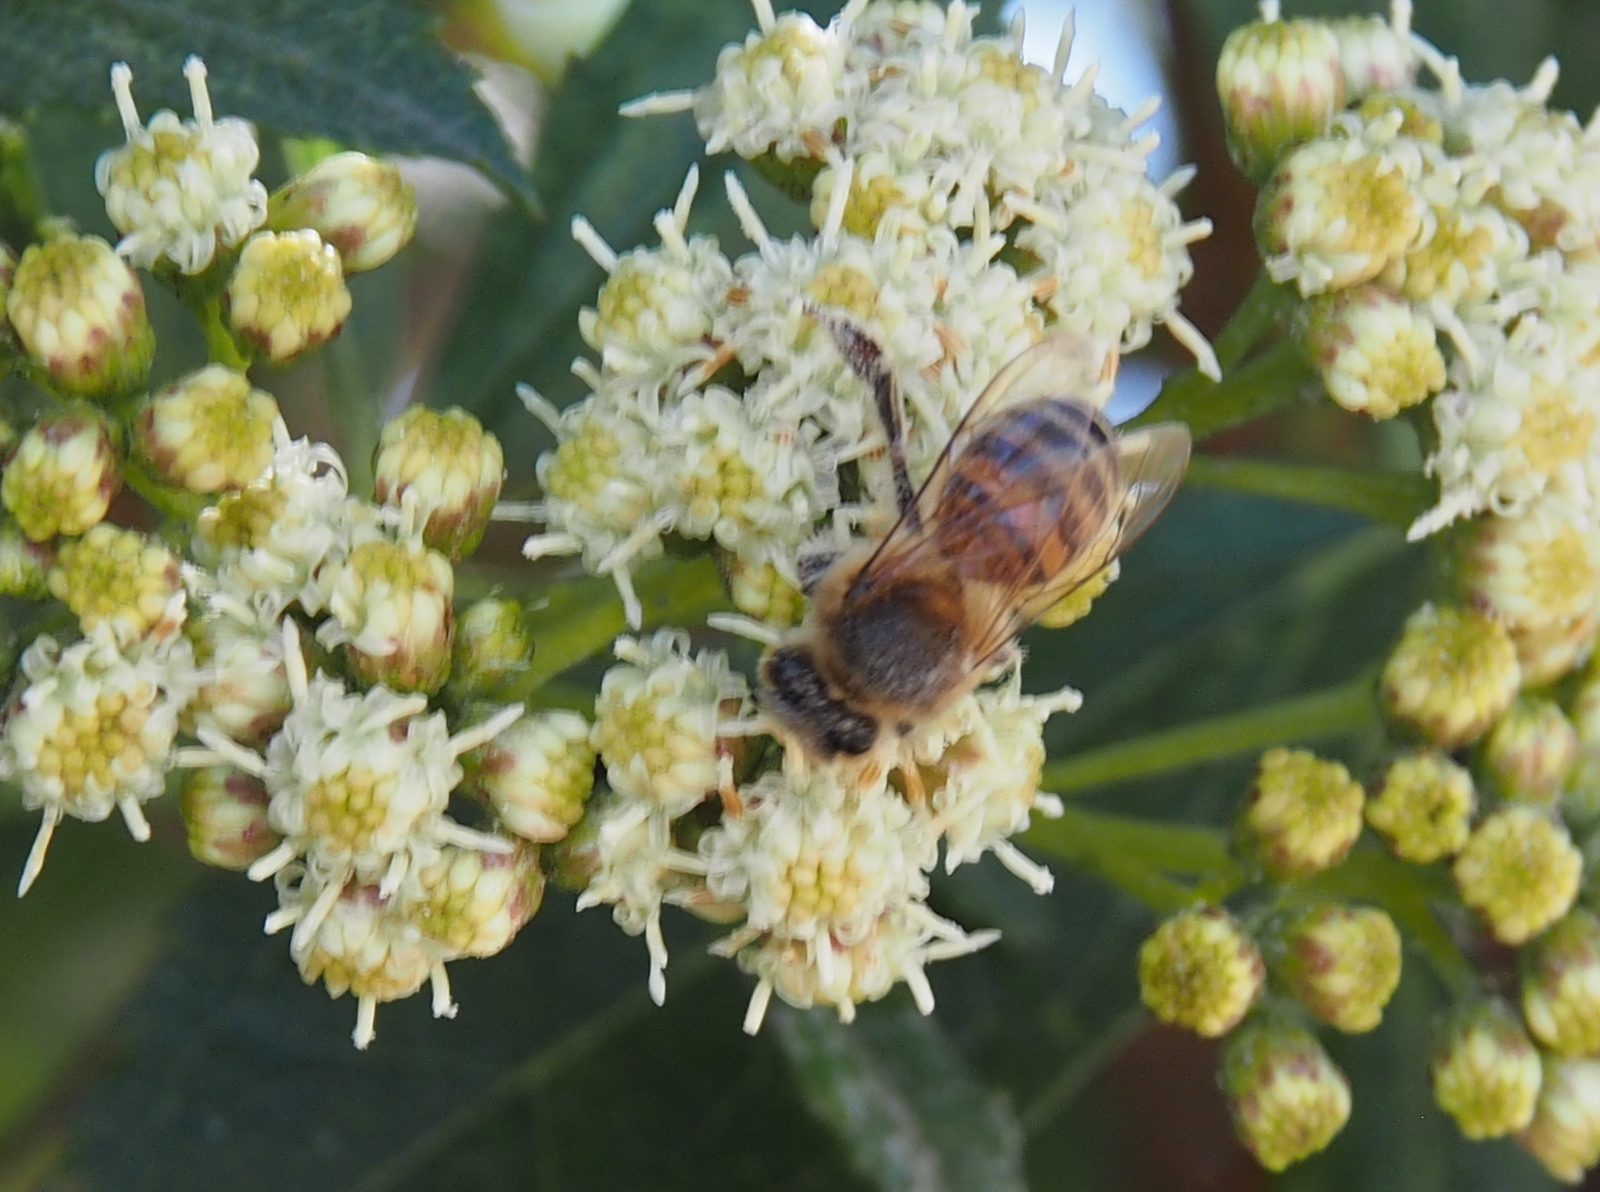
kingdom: Plantae
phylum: Tracheophyta
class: Magnoliopsida
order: Asterales
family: Asteraceae
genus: Baccharis
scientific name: Baccharis latifolia
